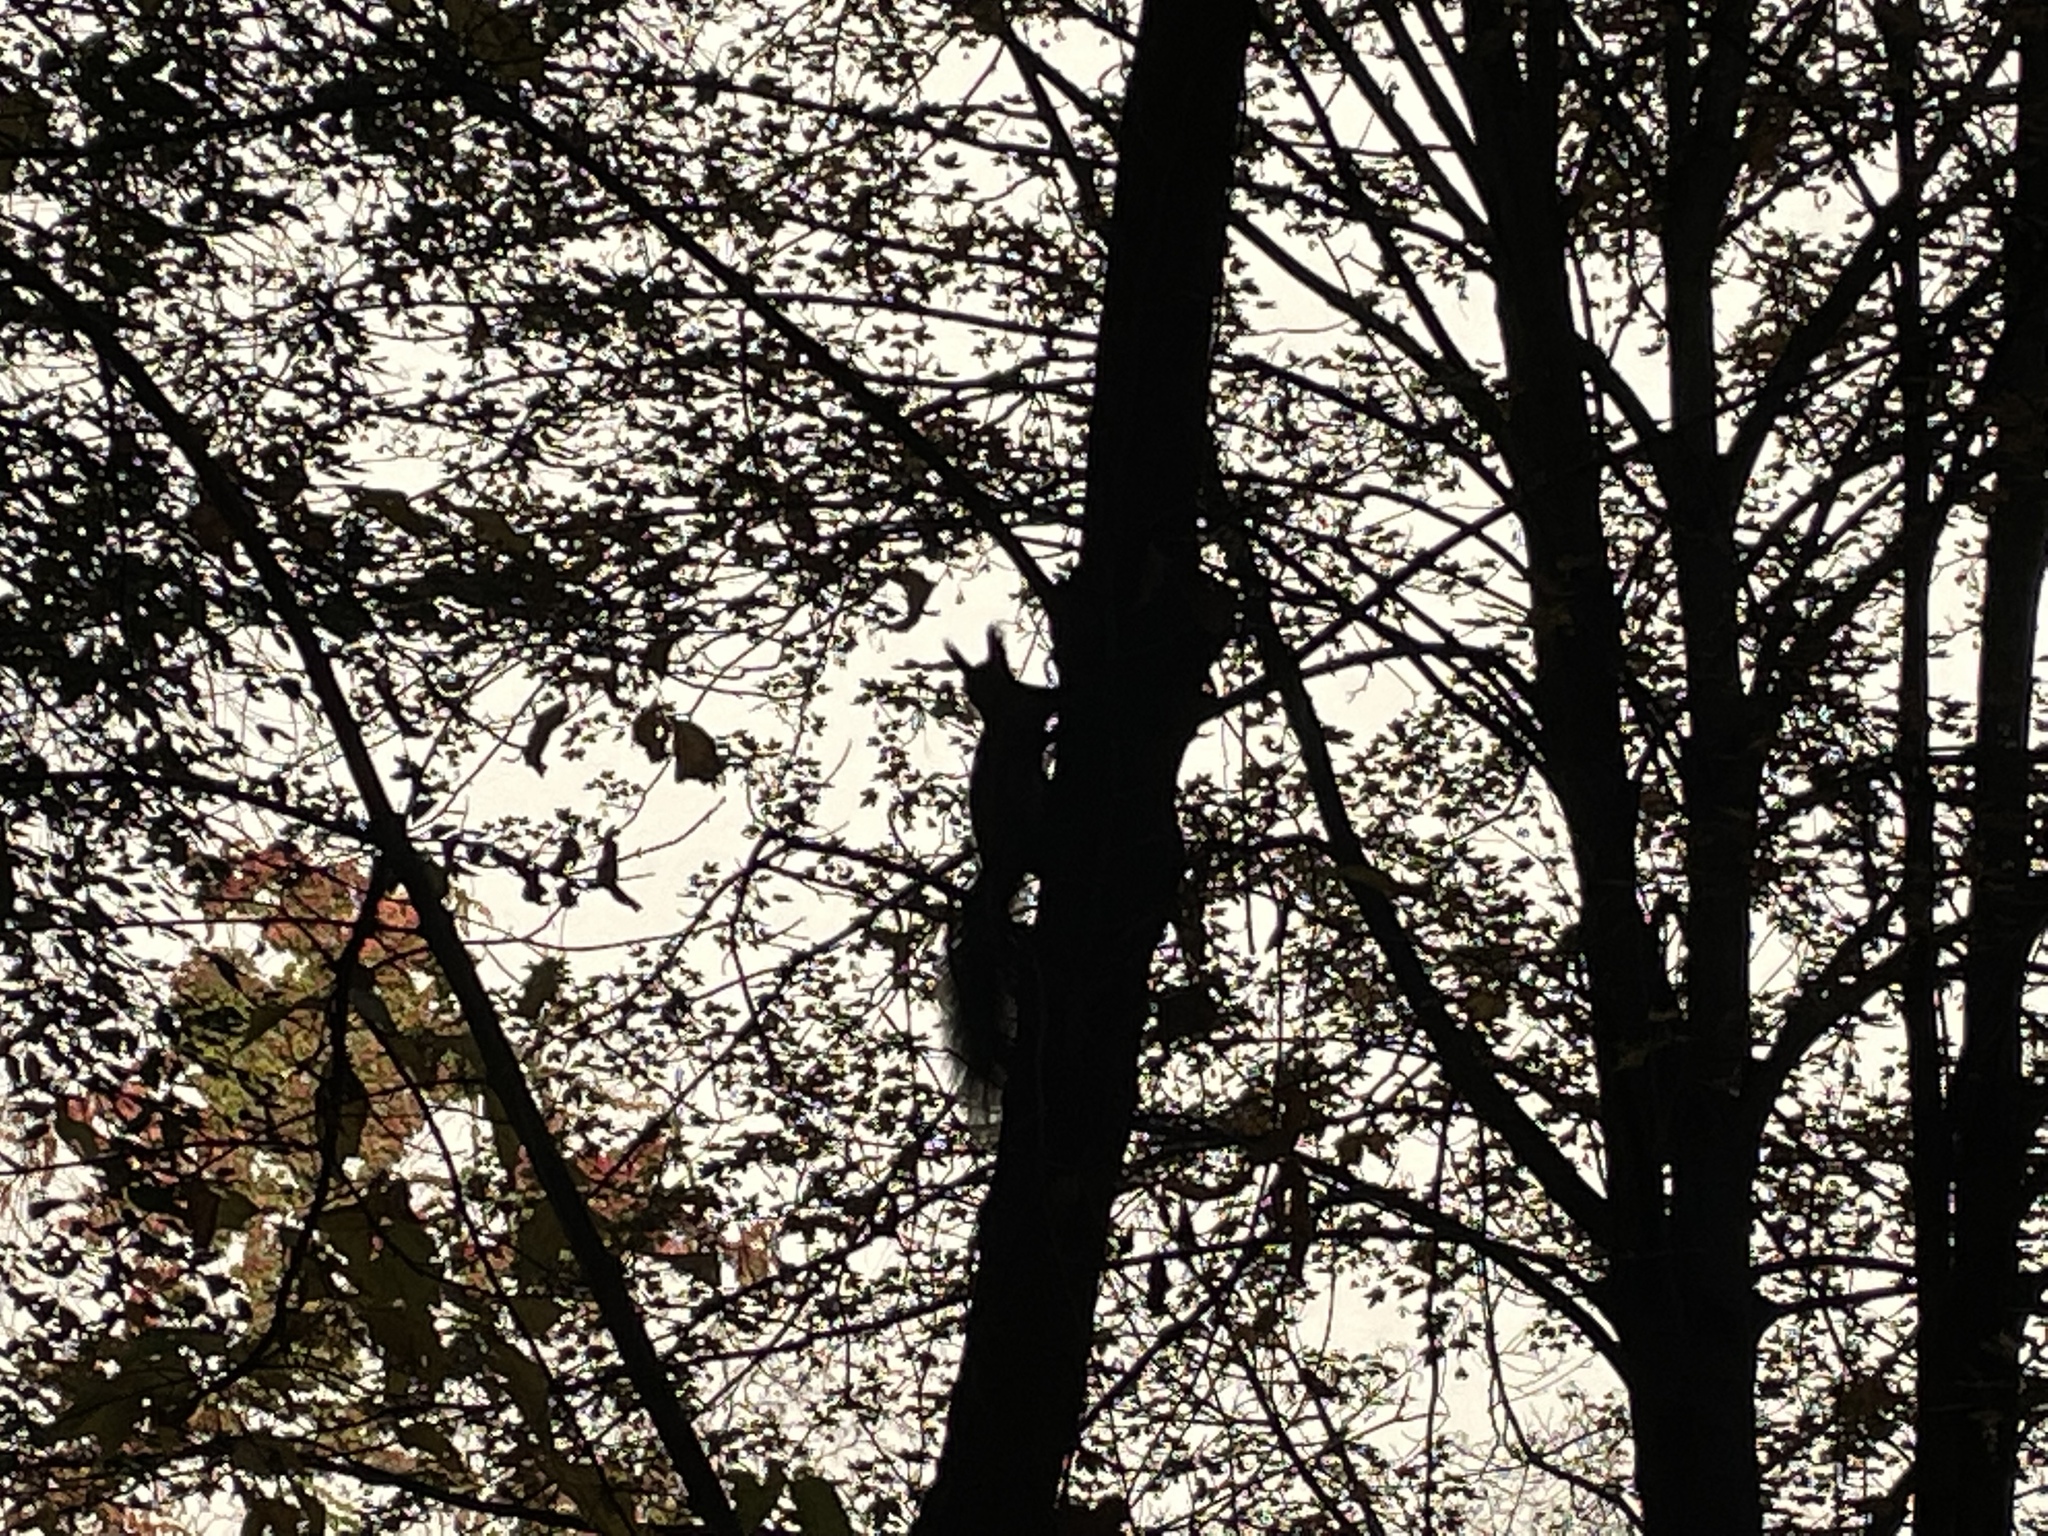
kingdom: Animalia
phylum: Chordata
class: Mammalia
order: Rodentia
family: Sciuridae
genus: Sciurus
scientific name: Sciurus vulgaris
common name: Eurasian red squirrel
